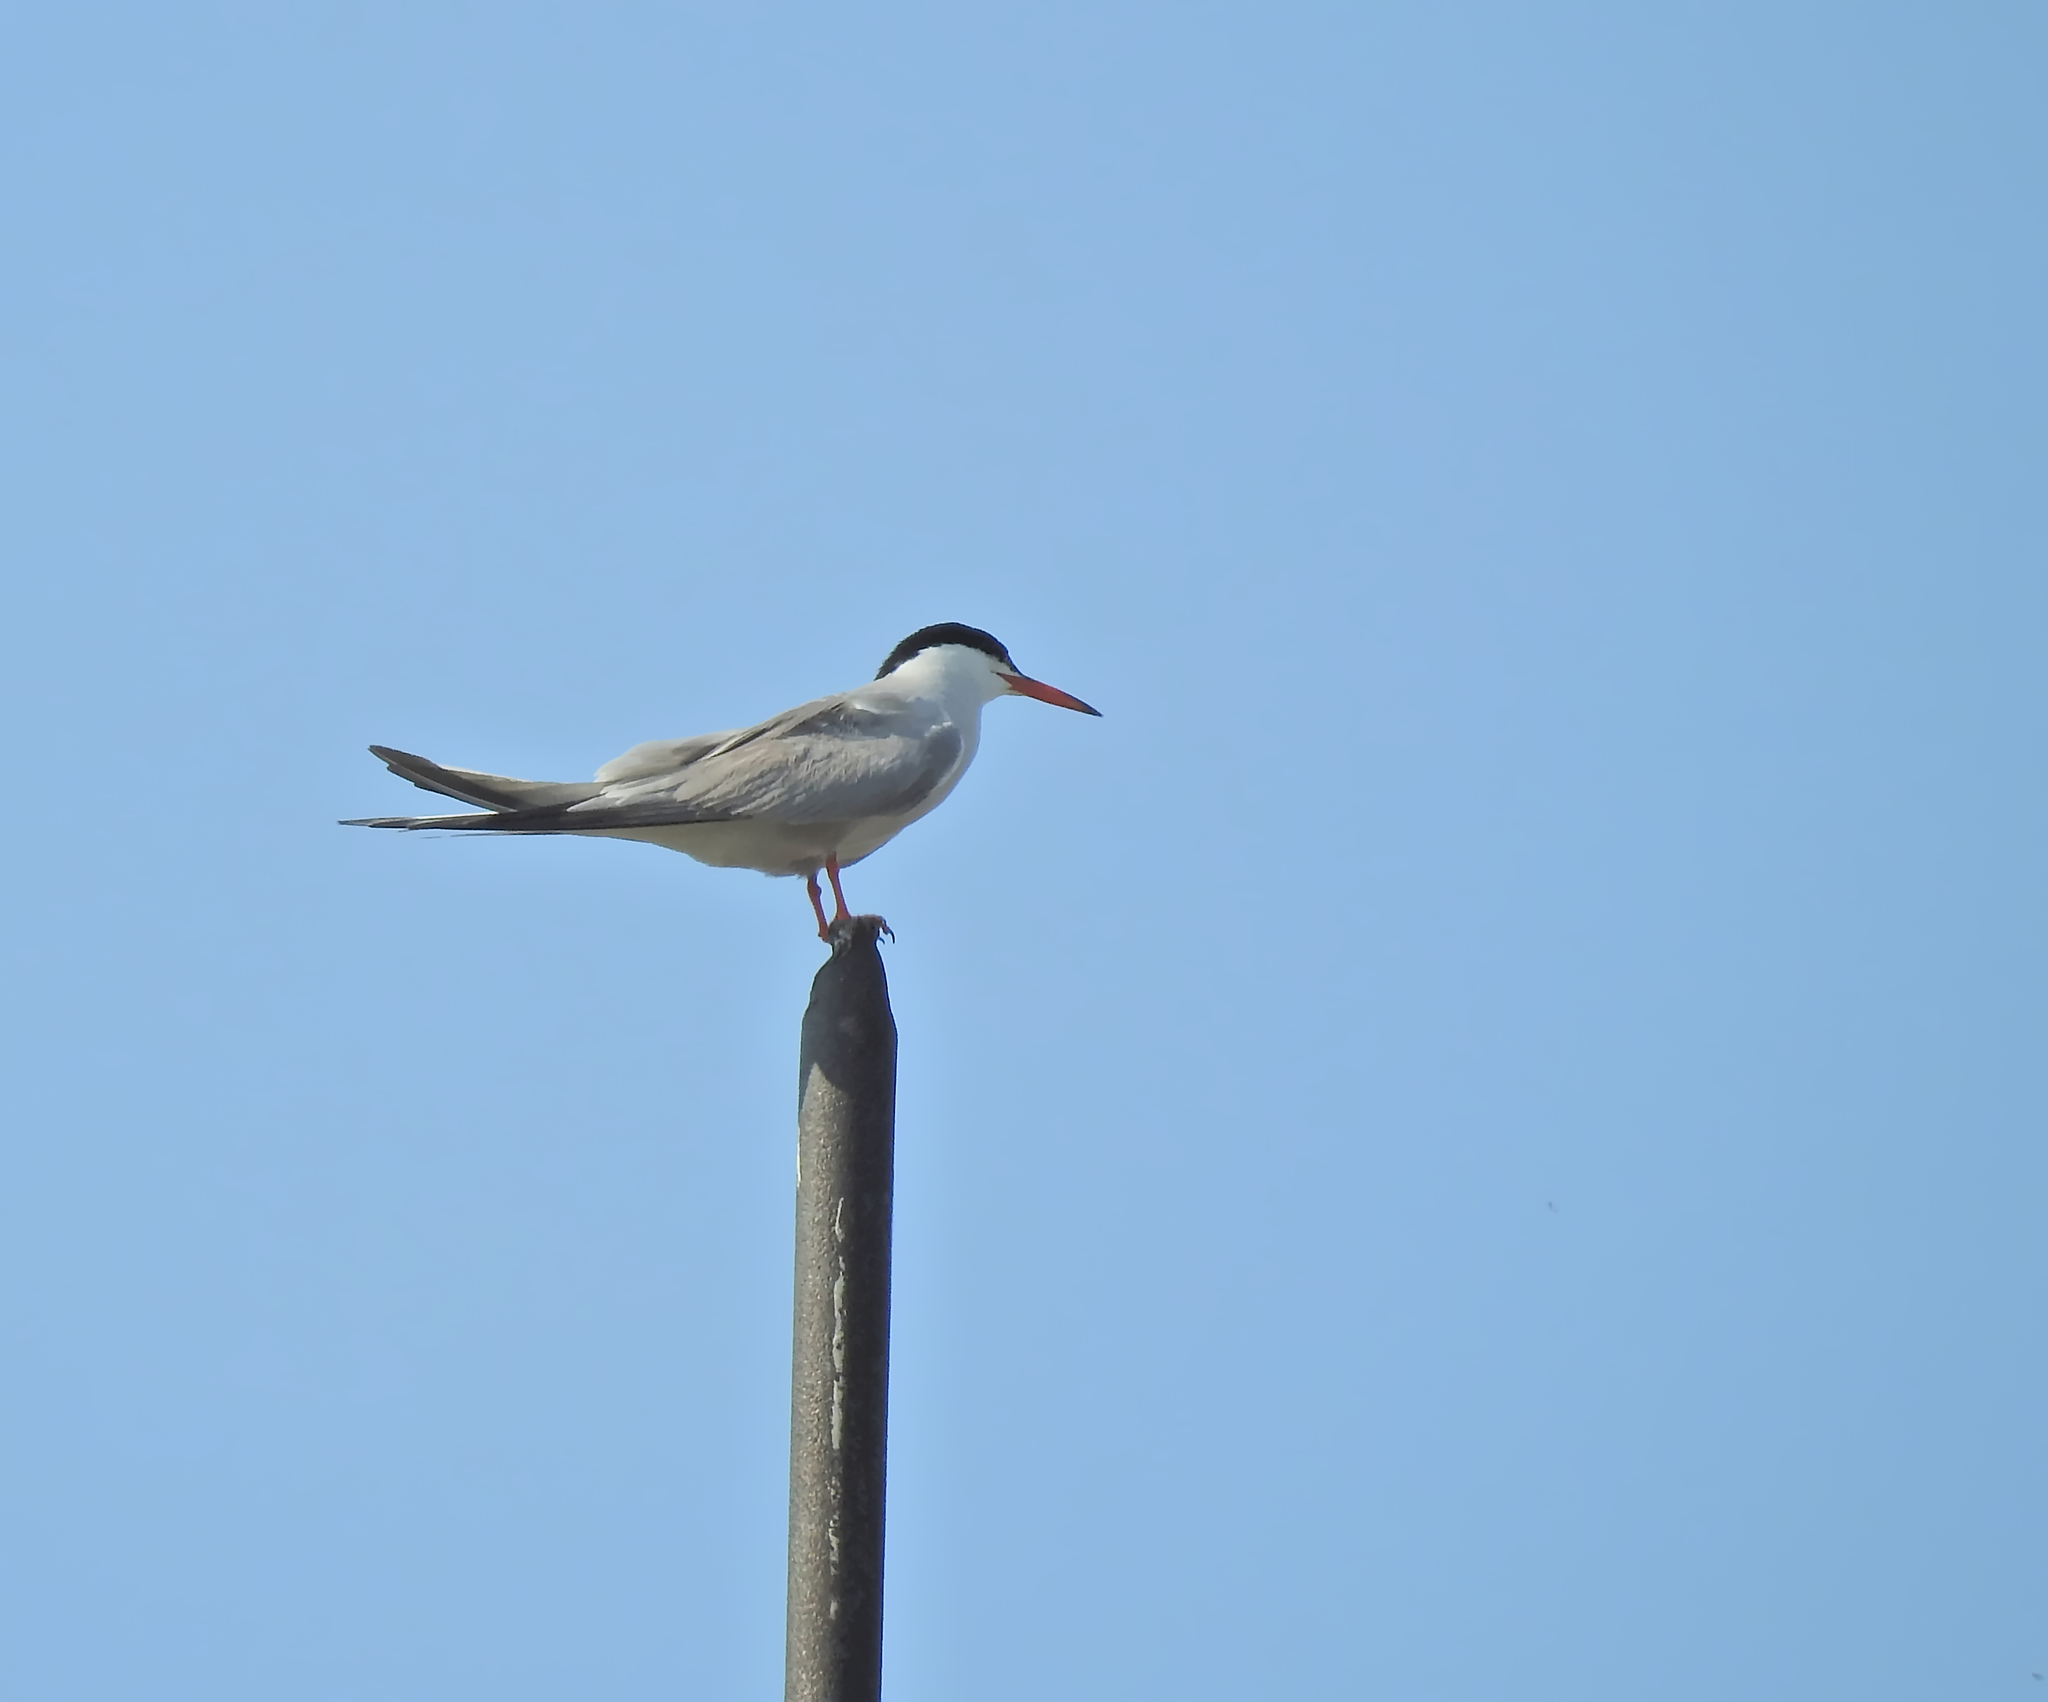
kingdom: Animalia
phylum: Chordata
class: Aves
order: Charadriiformes
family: Laridae
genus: Sterna
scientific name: Sterna hirundo
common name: Common tern
